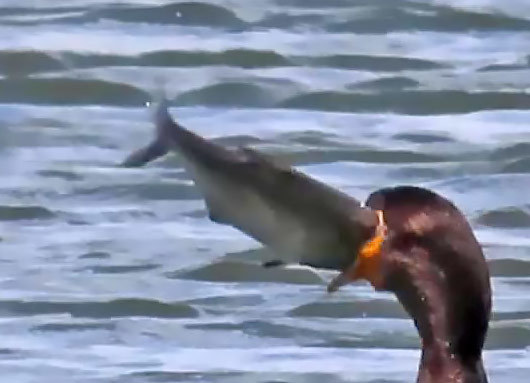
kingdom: Animalia
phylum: Chordata
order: Clupeiformes
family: Clupeidae
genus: Dorosoma
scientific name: Dorosoma cepedianum
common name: Gizzard shad
